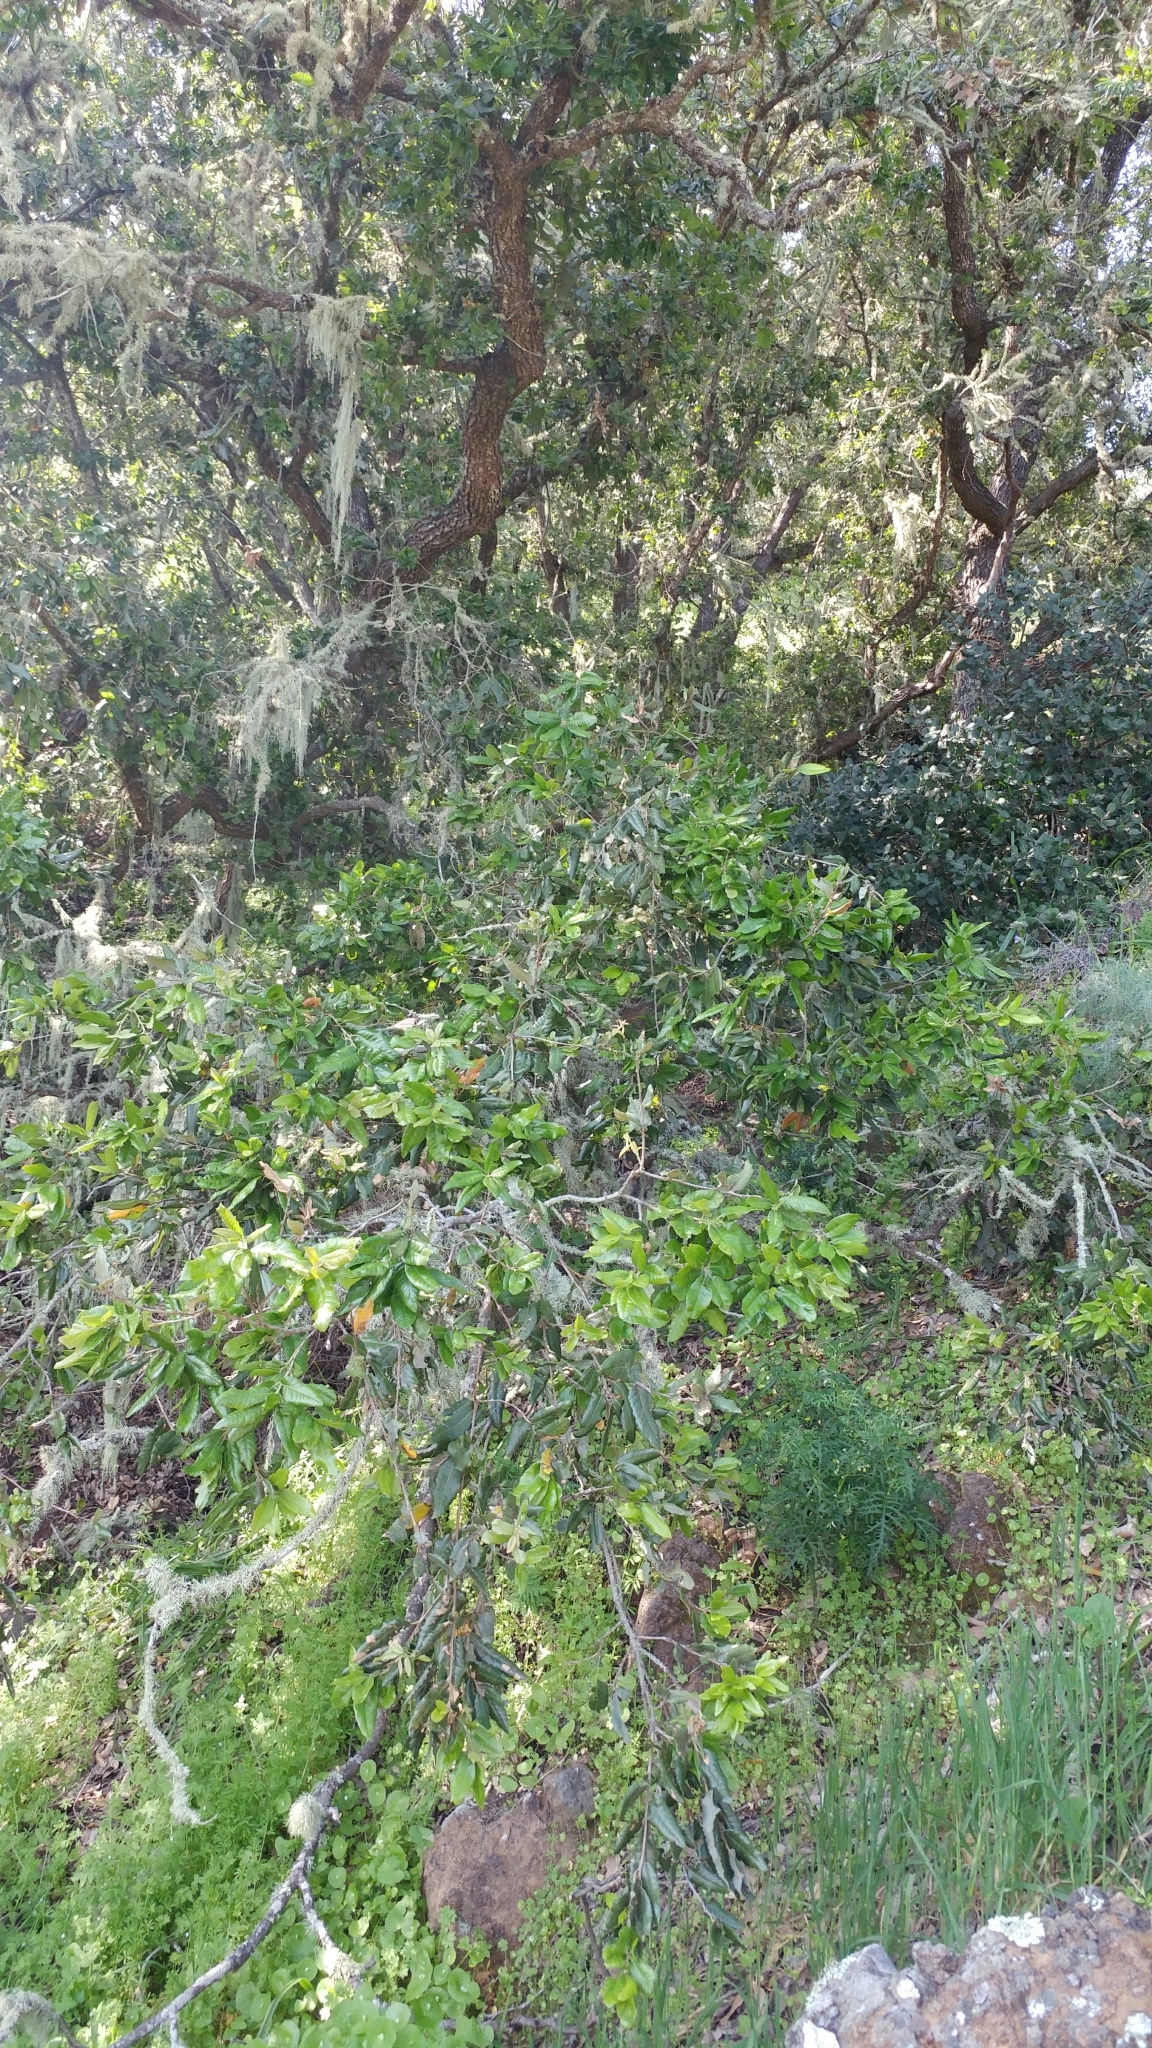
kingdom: Plantae
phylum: Tracheophyta
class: Magnoliopsida
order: Fagales
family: Fagaceae
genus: Quercus
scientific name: Quercus tomentella
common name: Island oak
